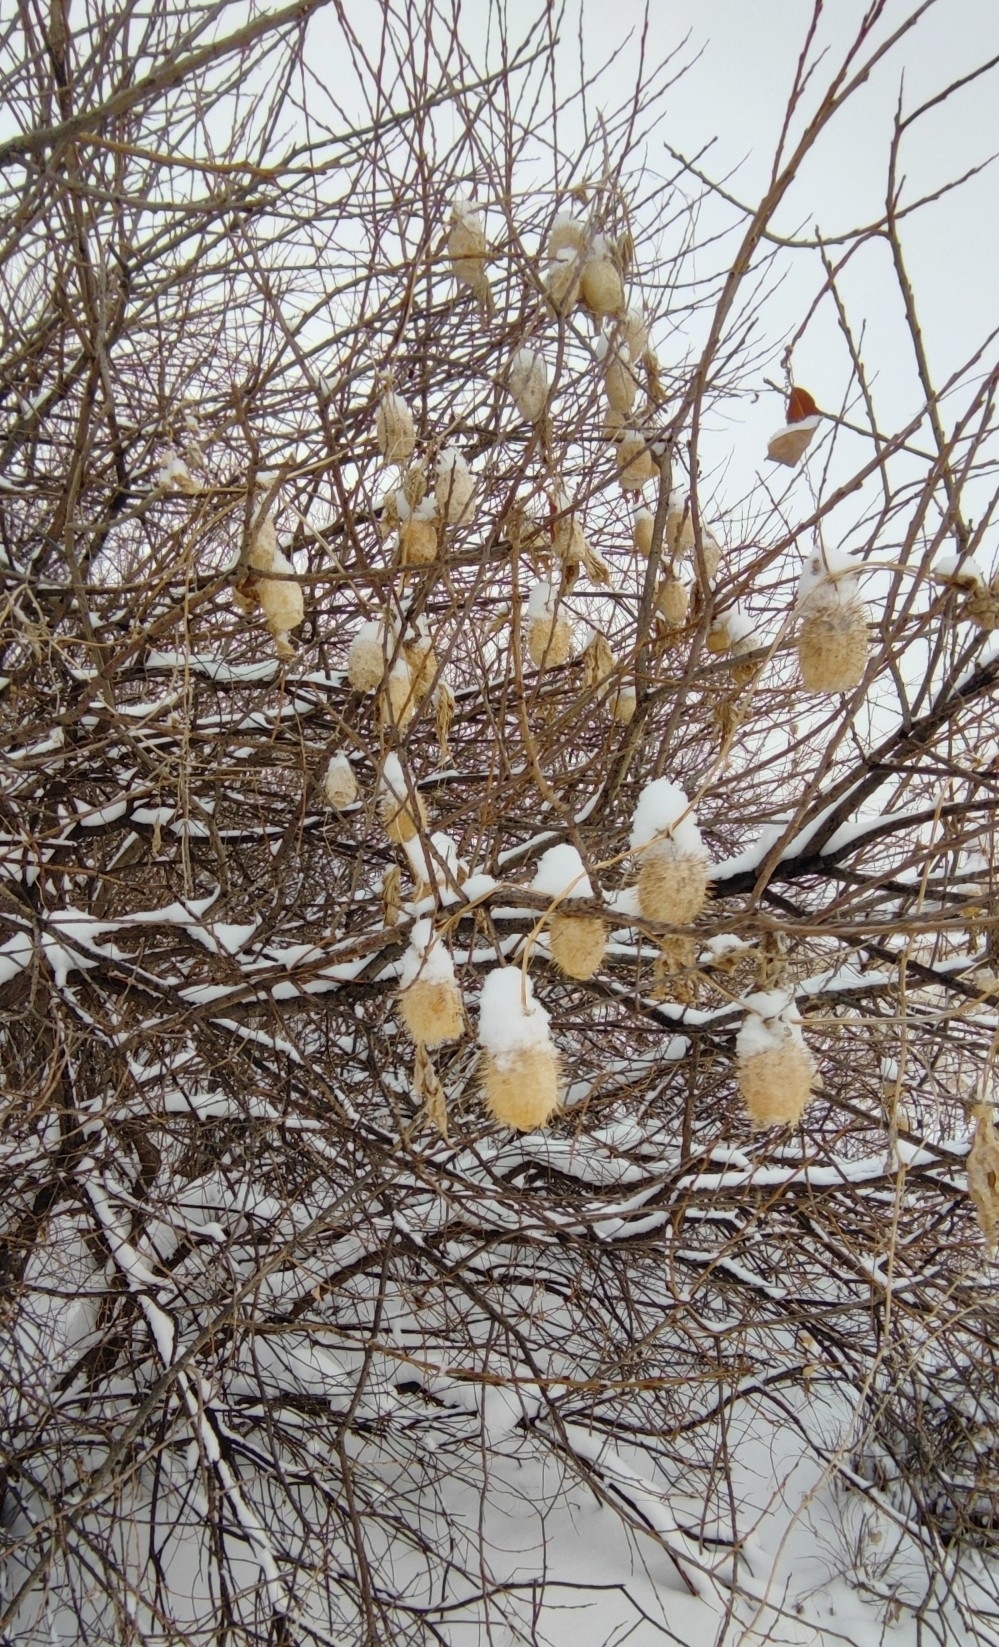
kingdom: Plantae
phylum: Tracheophyta
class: Magnoliopsida
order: Cucurbitales
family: Cucurbitaceae
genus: Echinocystis
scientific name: Echinocystis lobata
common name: Wild cucumber
